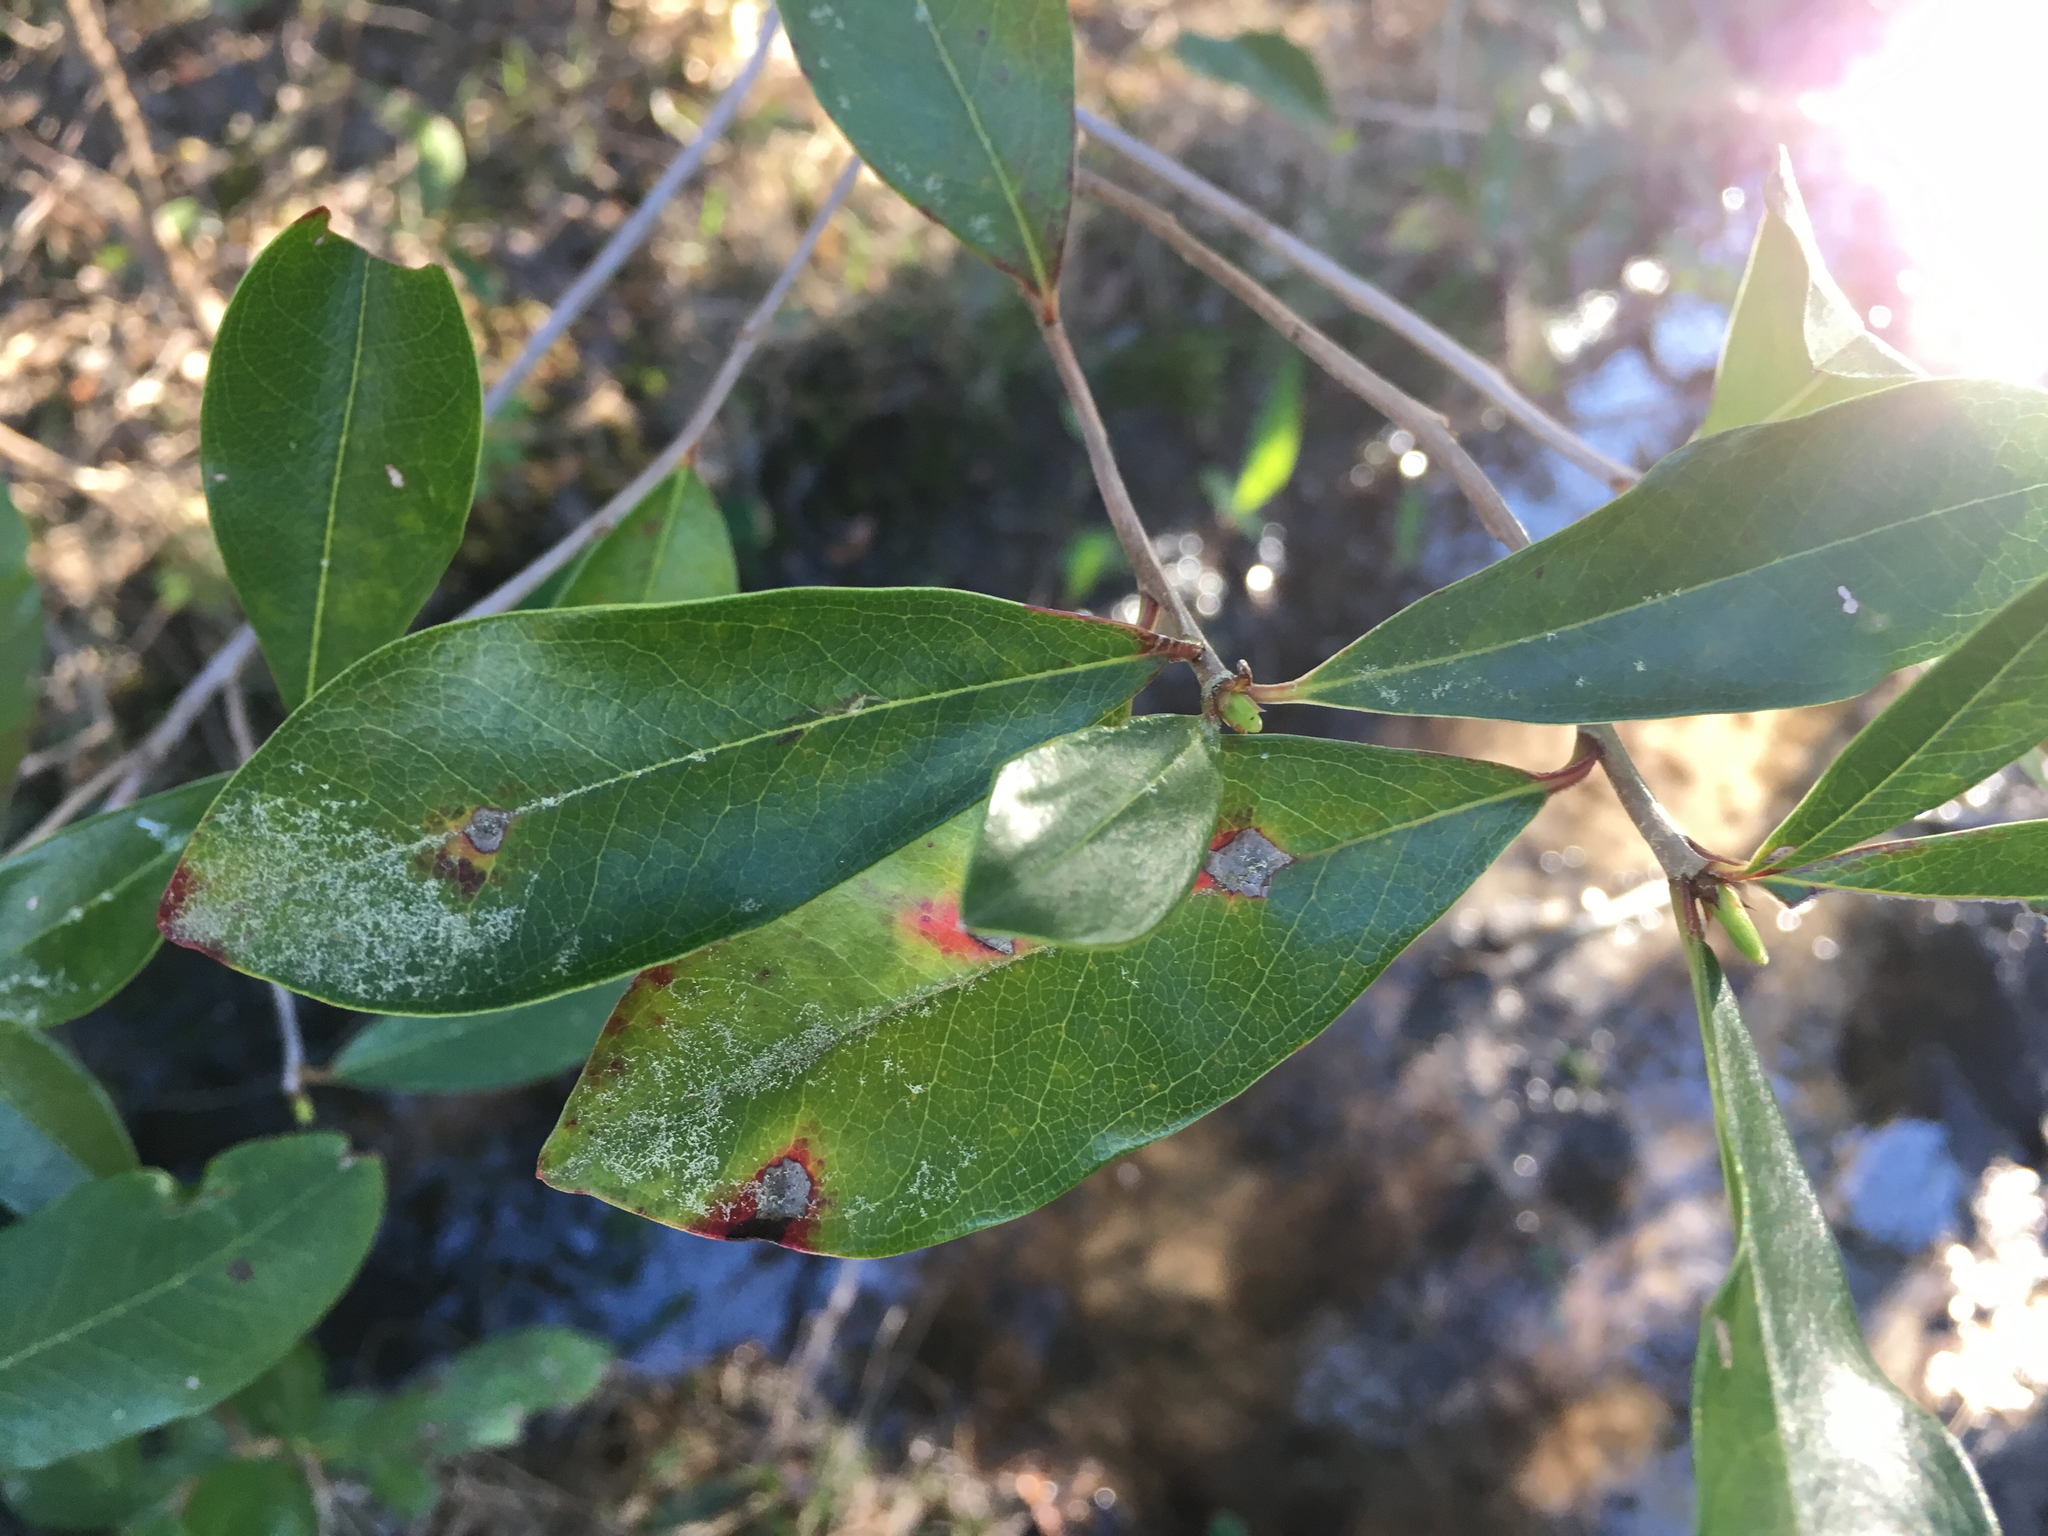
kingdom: Plantae
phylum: Tracheophyta
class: Magnoliopsida
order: Ericales
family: Cyrillaceae
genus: Cyrilla
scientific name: Cyrilla racemiflora
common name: Black titi
